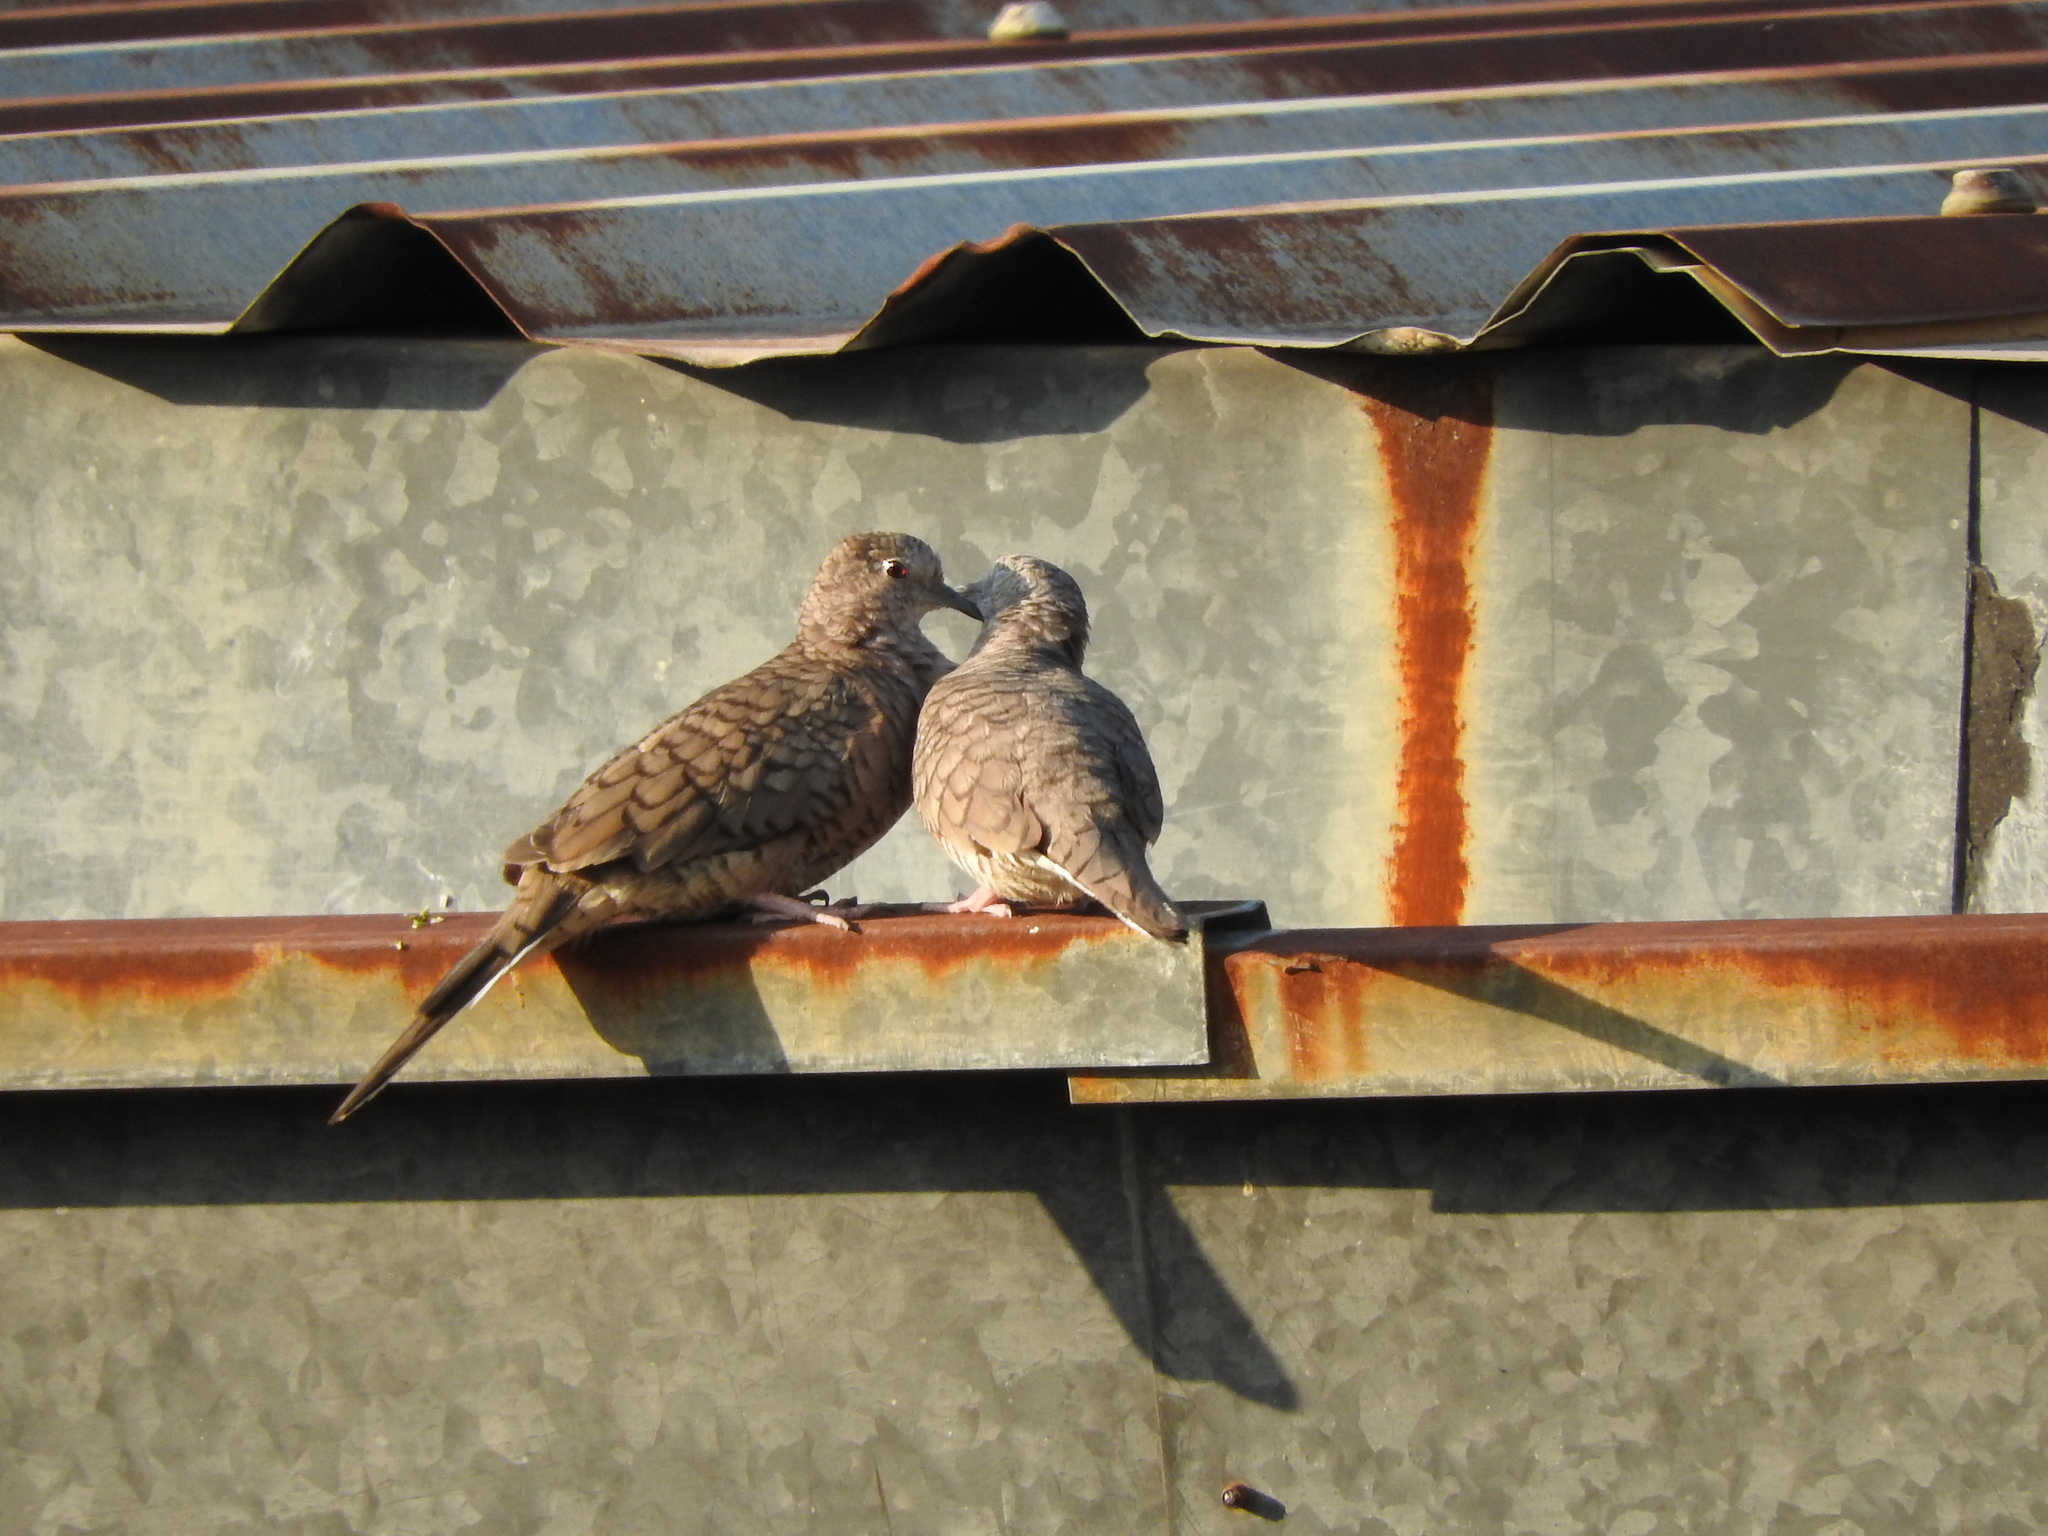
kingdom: Animalia
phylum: Chordata
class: Aves
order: Columbiformes
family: Columbidae
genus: Columbina
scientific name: Columbina inca
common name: Inca dove
